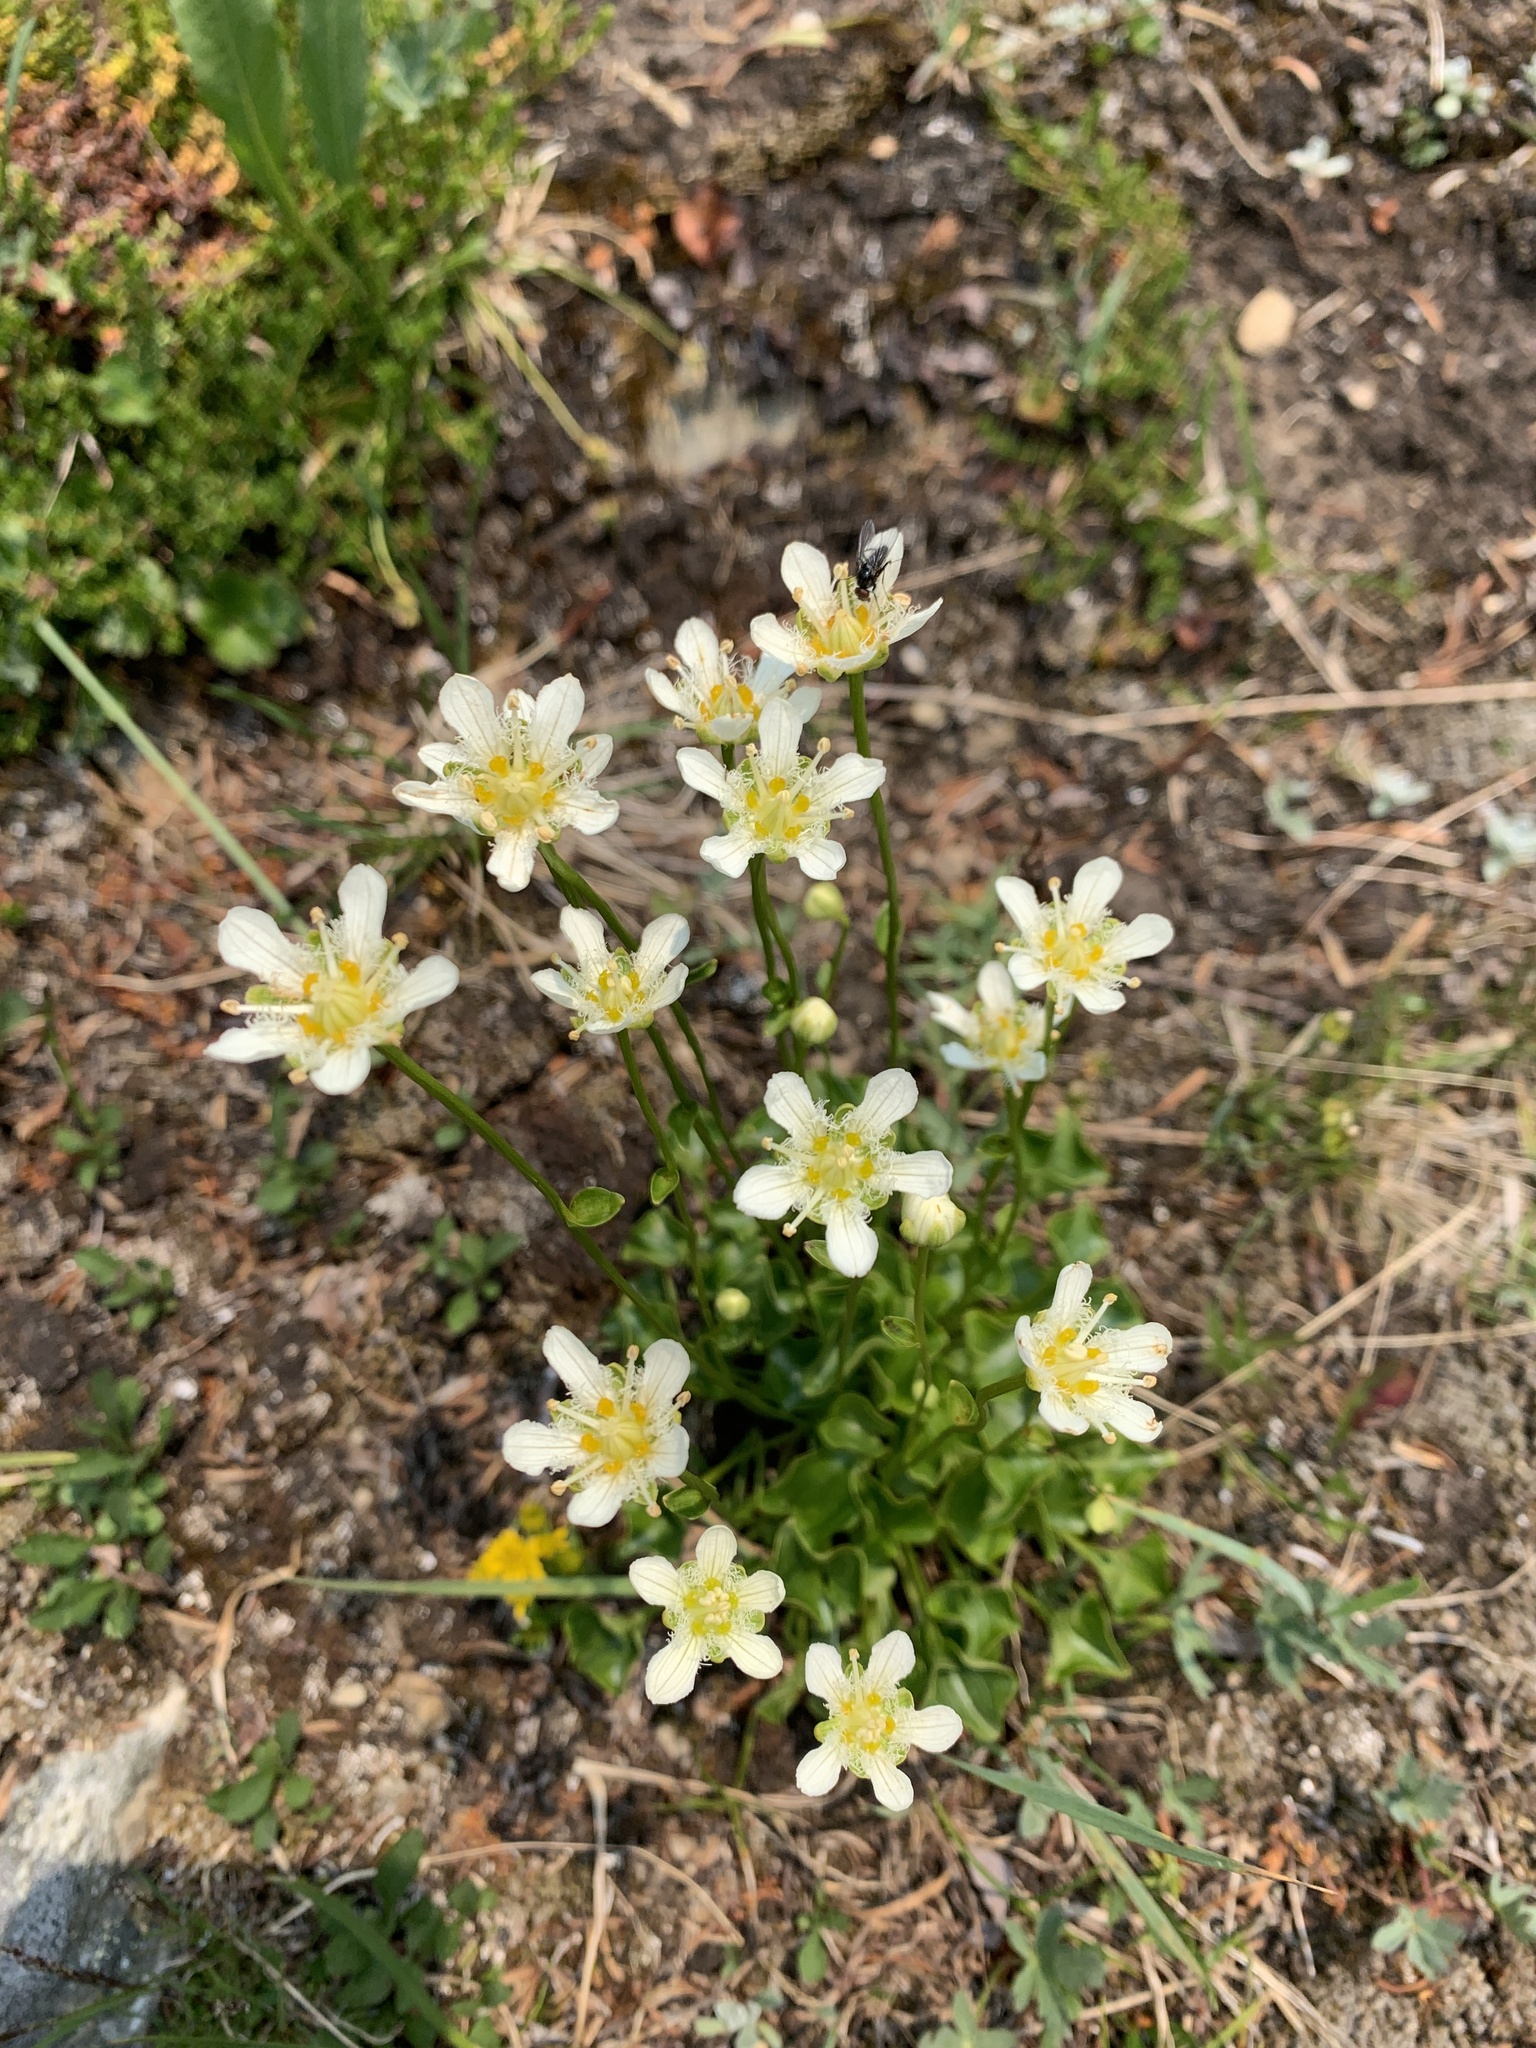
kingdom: Plantae
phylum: Tracheophyta
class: Magnoliopsida
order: Celastrales
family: Parnassiaceae
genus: Parnassia
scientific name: Parnassia fimbriata
